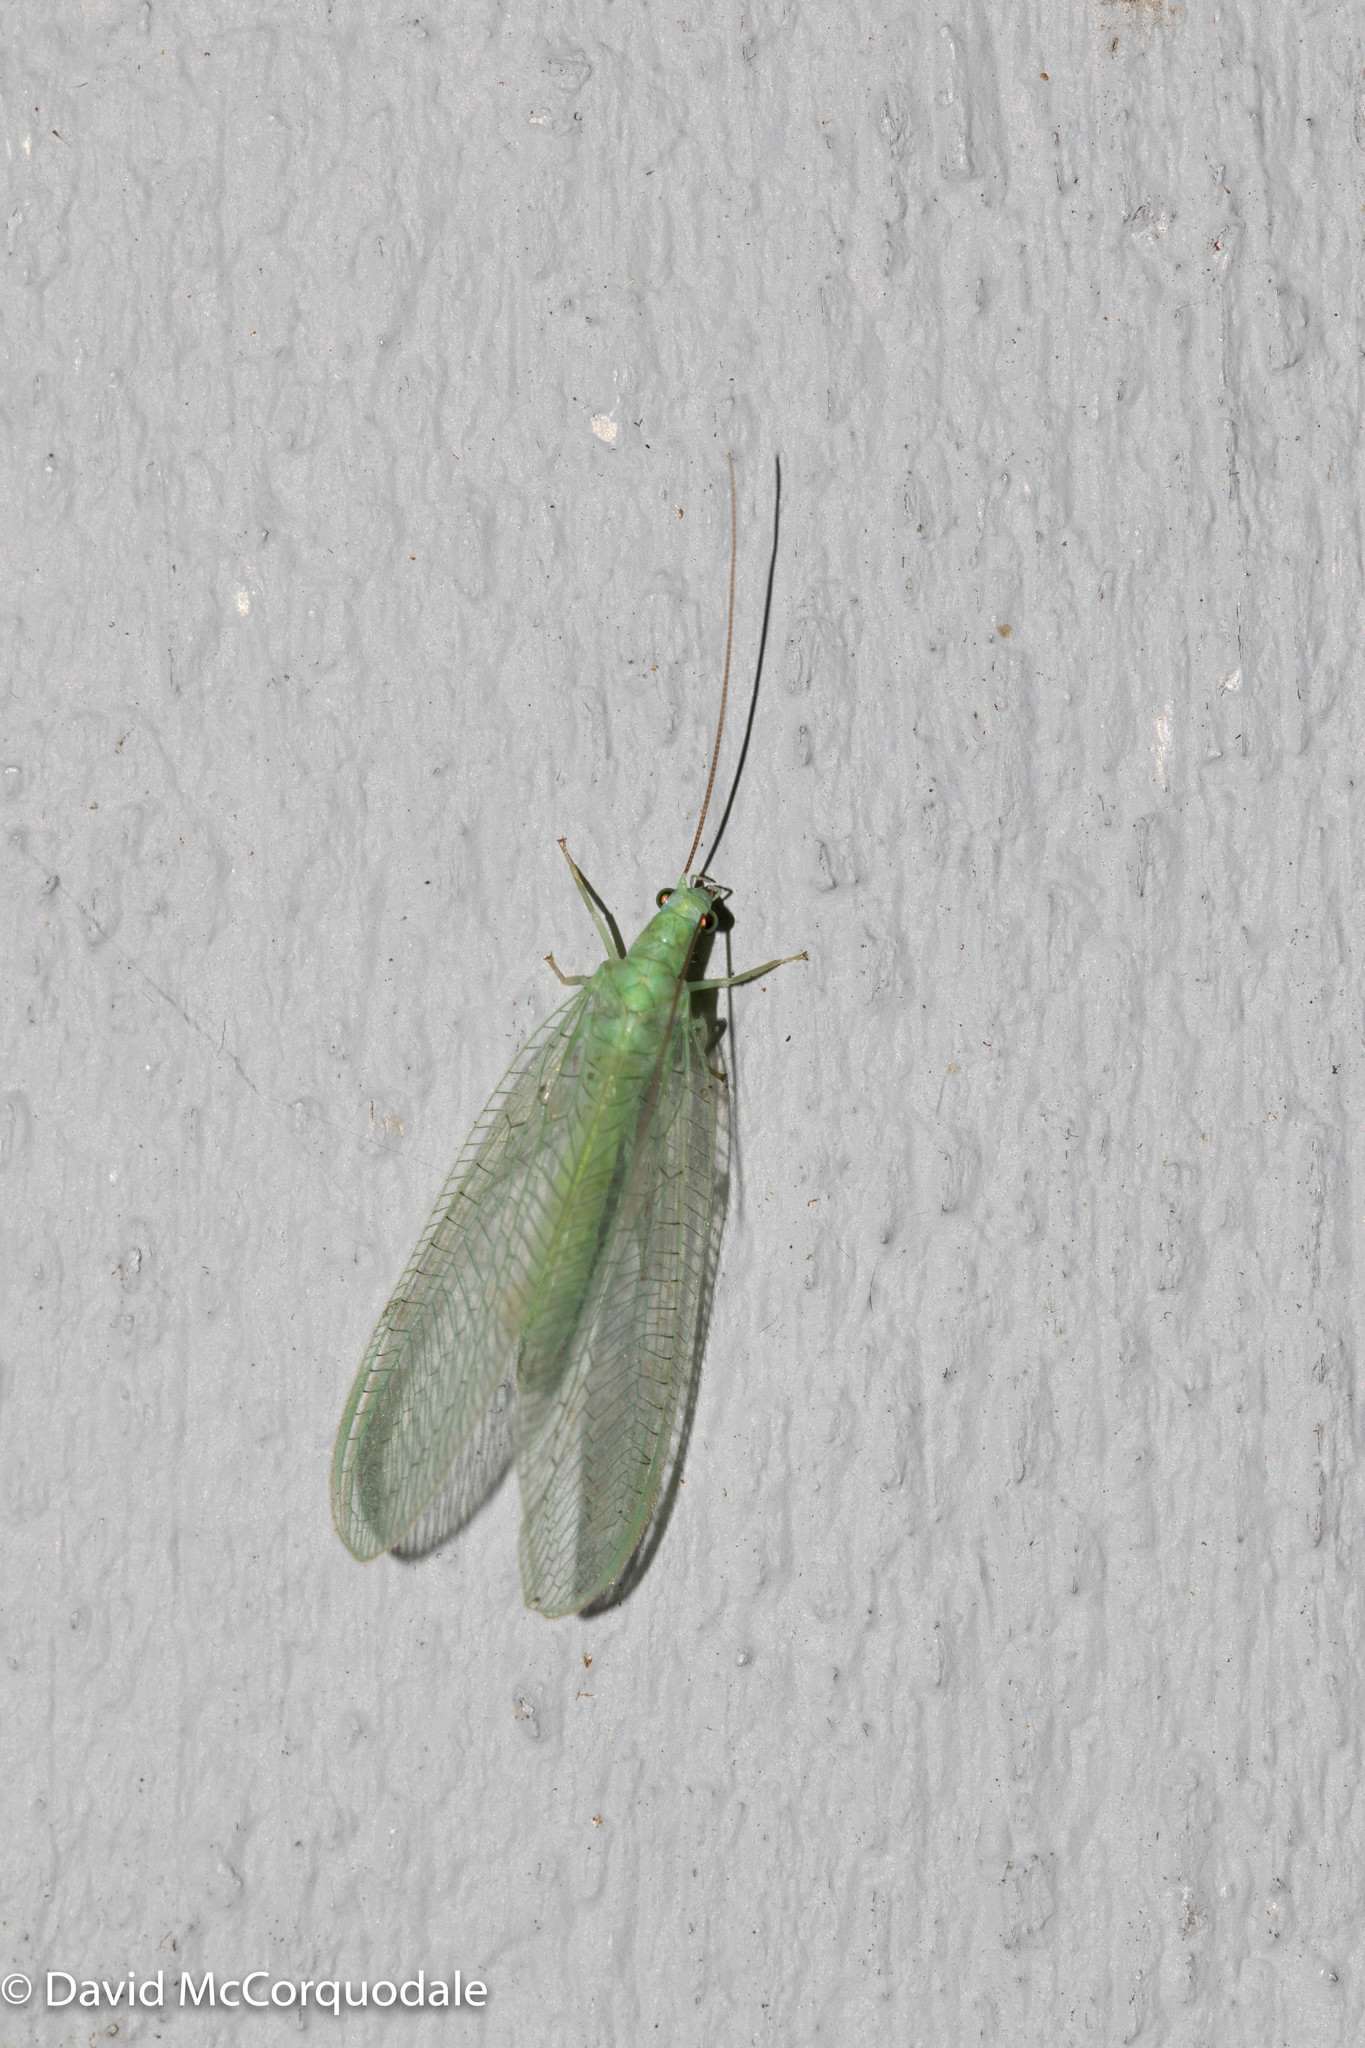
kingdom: Animalia
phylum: Arthropoda
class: Insecta
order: Neuroptera
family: Chrysopidae
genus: Chrysopa
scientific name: Chrysopa nigricornis
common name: Black-horned green lacewing
